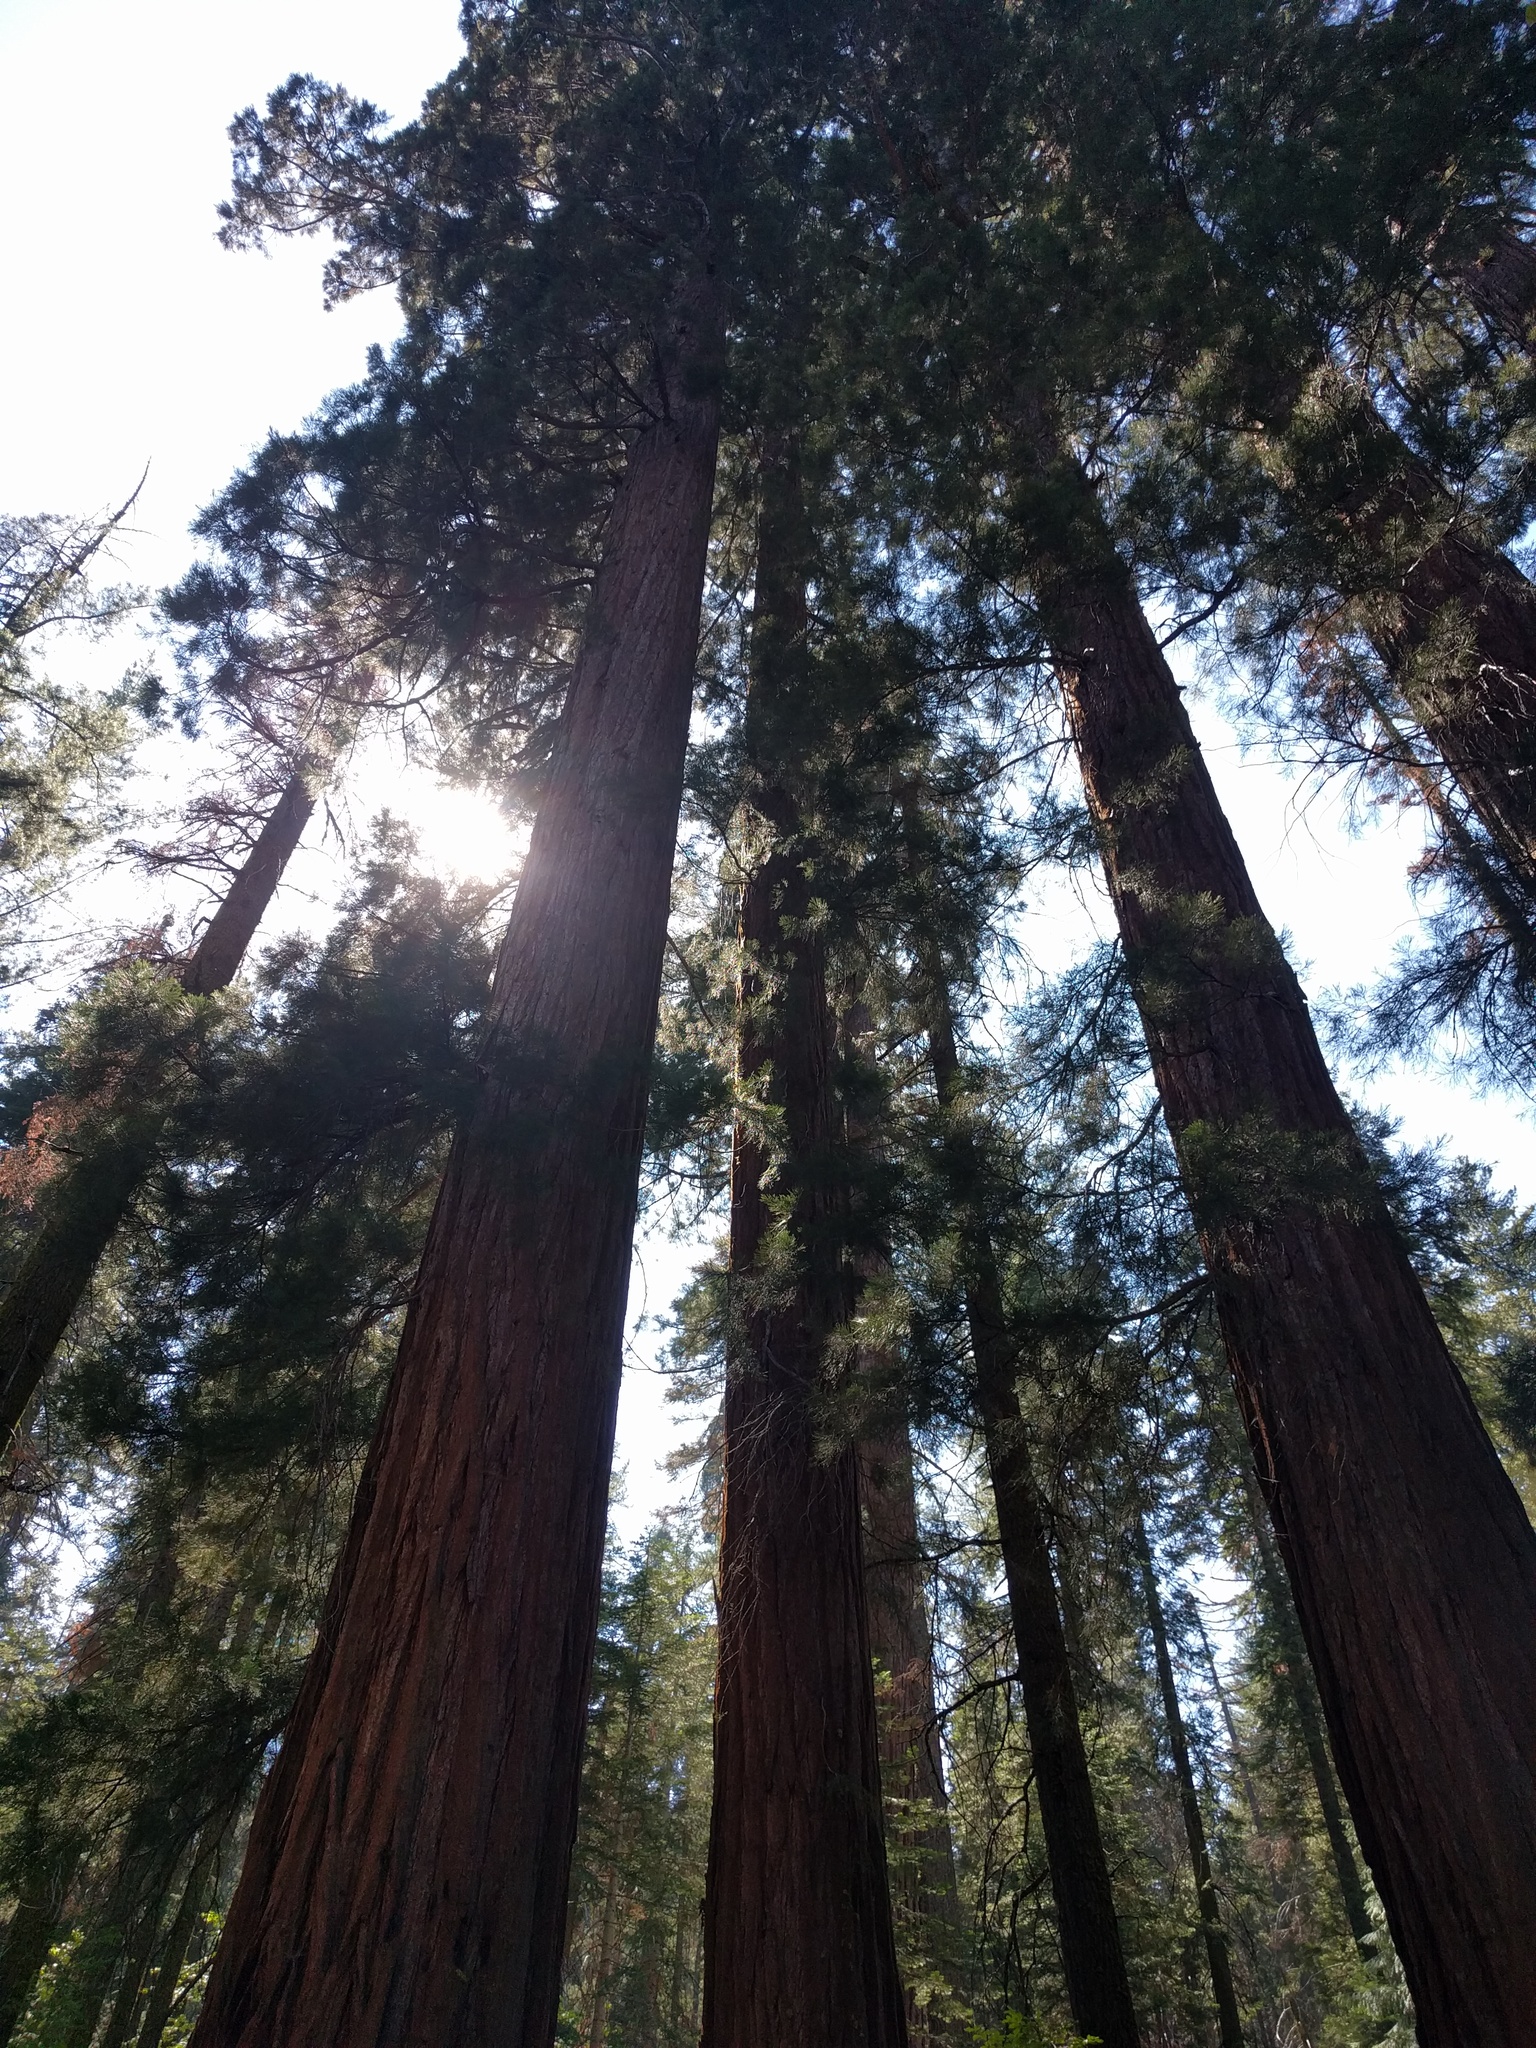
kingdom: Plantae
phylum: Tracheophyta
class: Pinopsida
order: Pinales
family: Cupressaceae
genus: Sequoiadendron
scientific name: Sequoiadendron giganteum
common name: Wellingtonia
